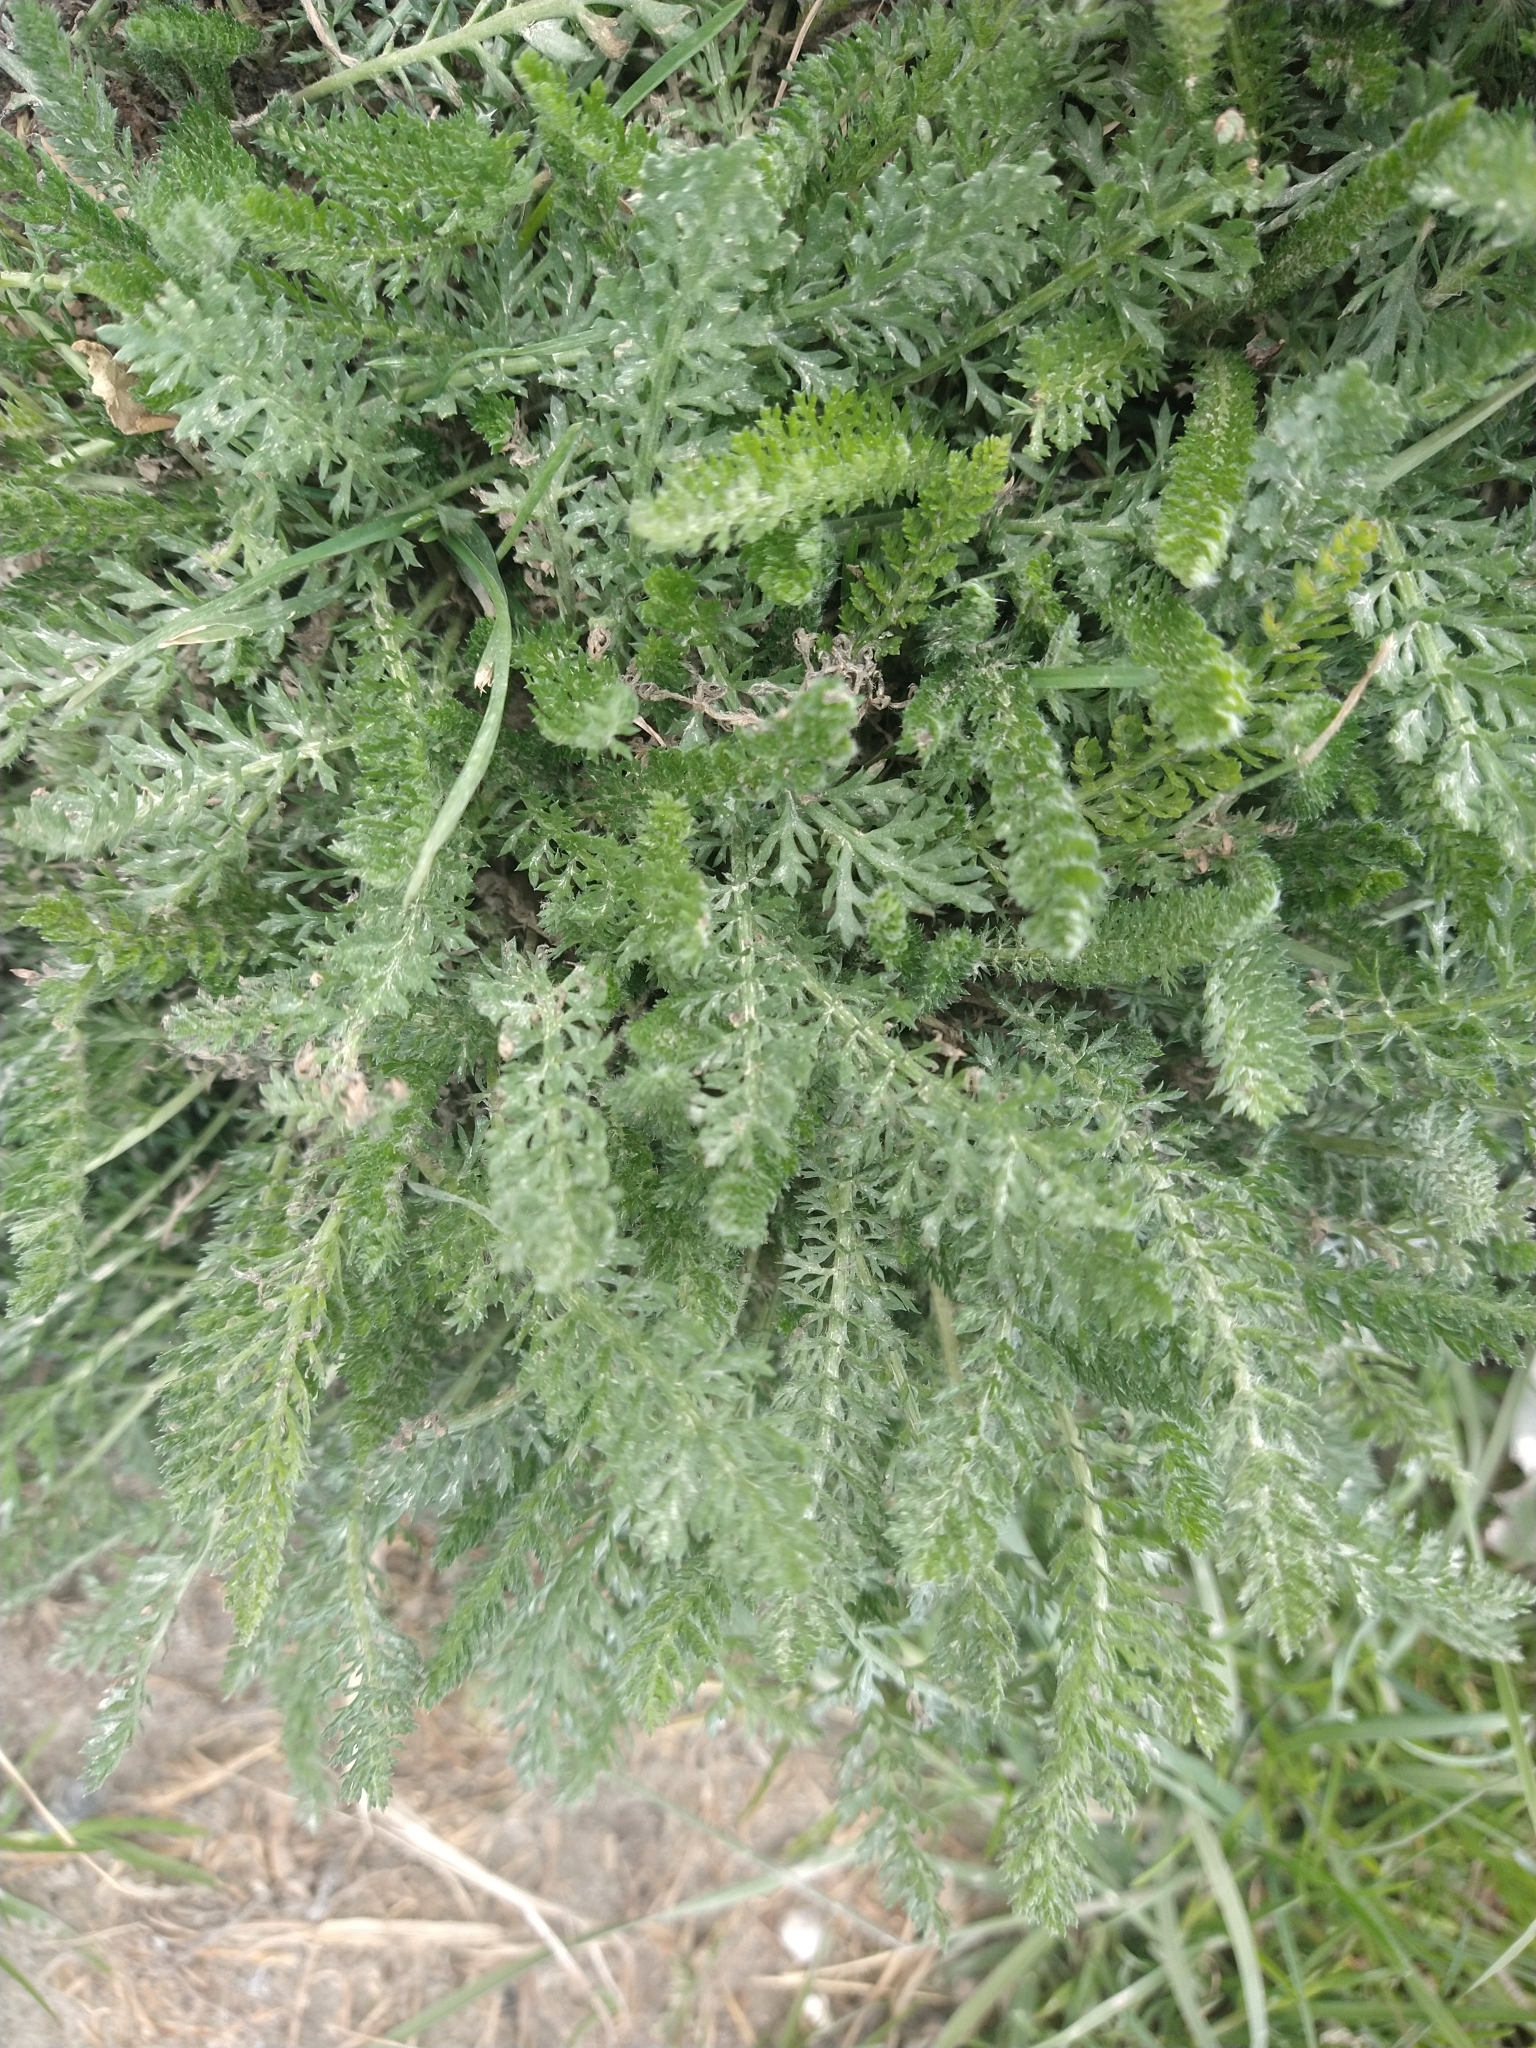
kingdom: Plantae
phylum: Tracheophyta
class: Magnoliopsida
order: Asterales
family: Asteraceae
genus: Achillea
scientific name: Achillea millefolium
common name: Yarrow
